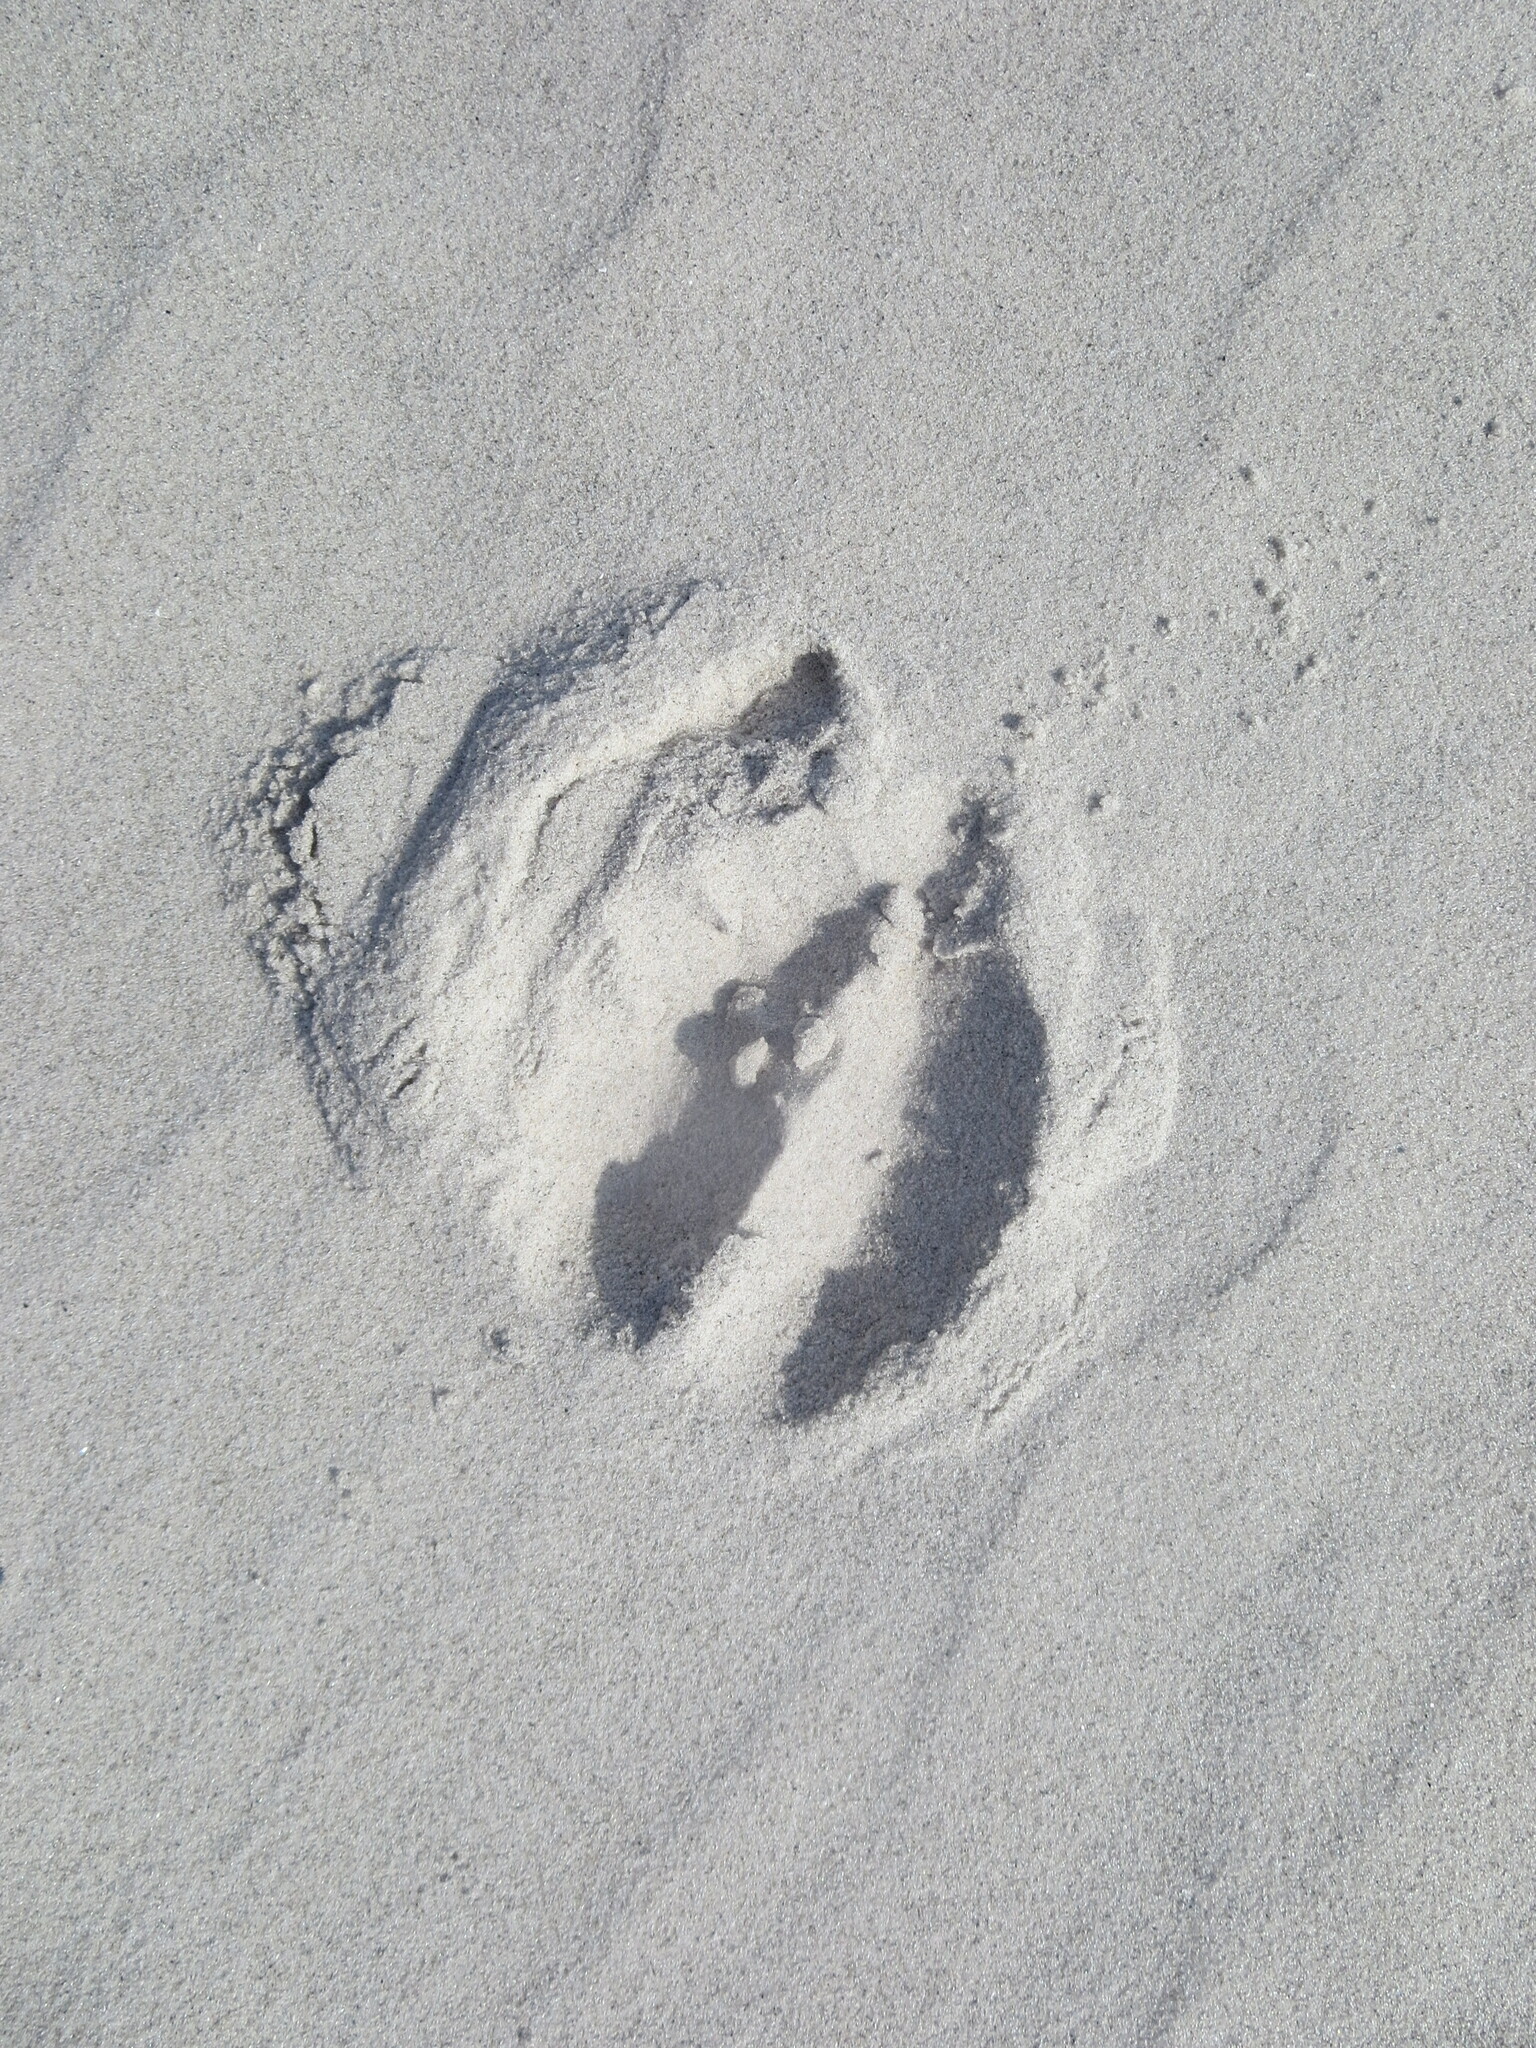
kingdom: Animalia
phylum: Chordata
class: Mammalia
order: Artiodactyla
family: Cervidae
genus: Odocoileus
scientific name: Odocoileus virginianus
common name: White-tailed deer
